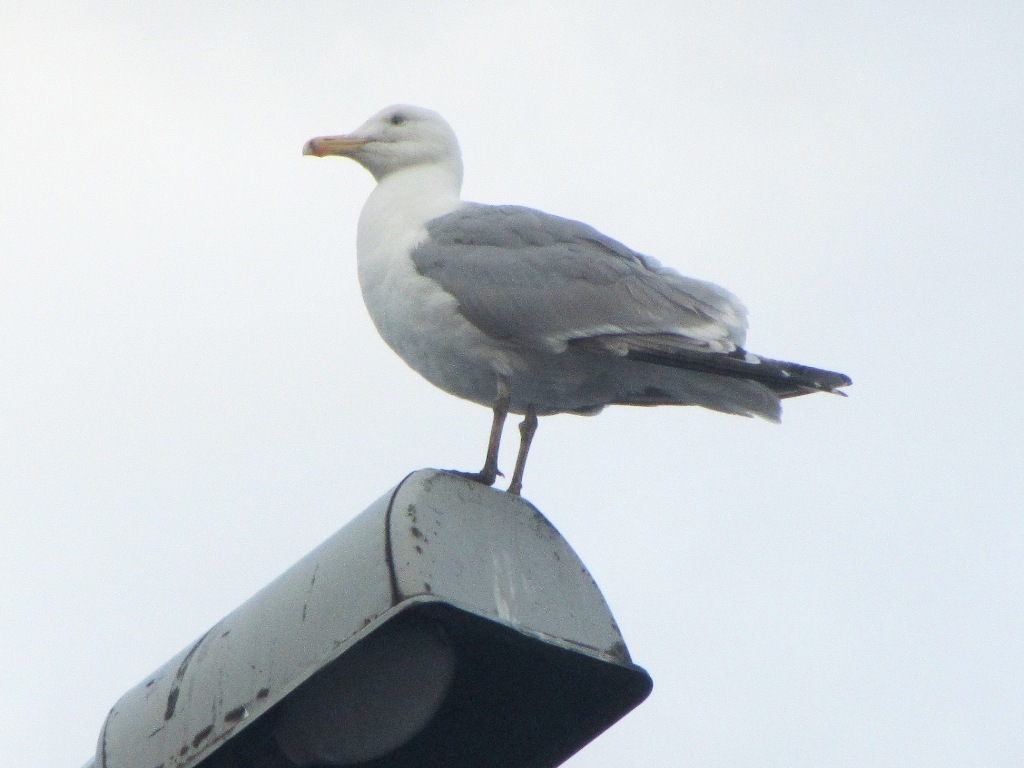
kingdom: Animalia
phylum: Chordata
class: Aves
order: Charadriiformes
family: Laridae
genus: Larus
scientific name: Larus argentatus
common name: Herring gull
